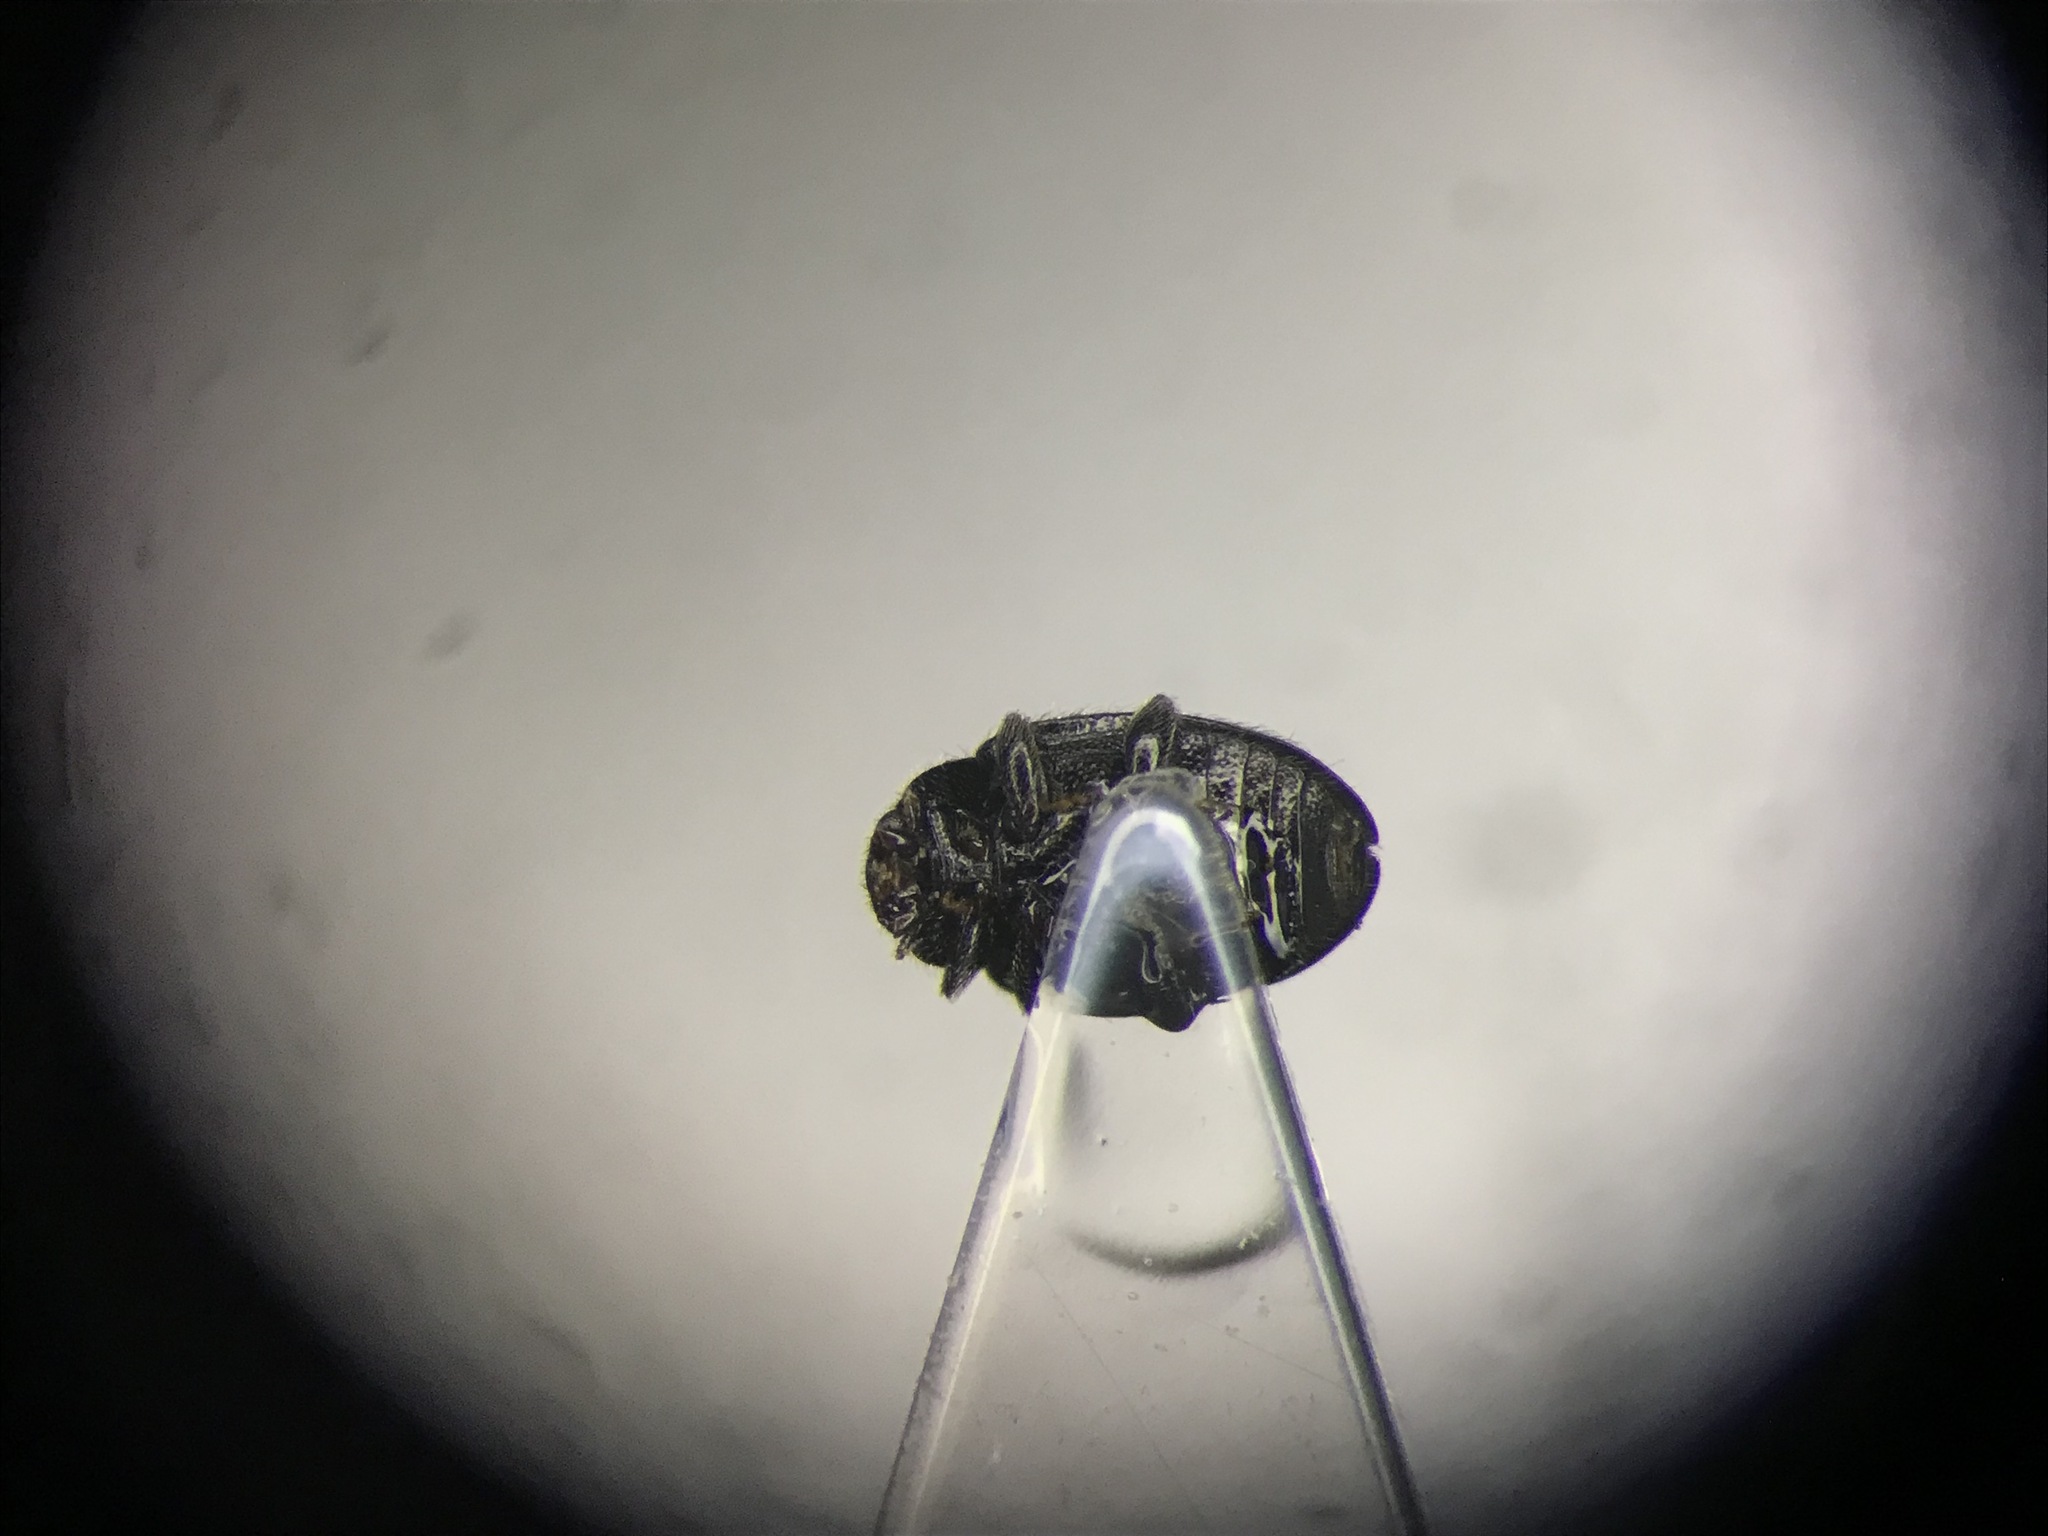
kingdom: Animalia
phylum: Arthropoda
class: Insecta
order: Coleoptera
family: Coccinellidae
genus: Didion
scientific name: Didion punctatum
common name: Twice-stained miniature
